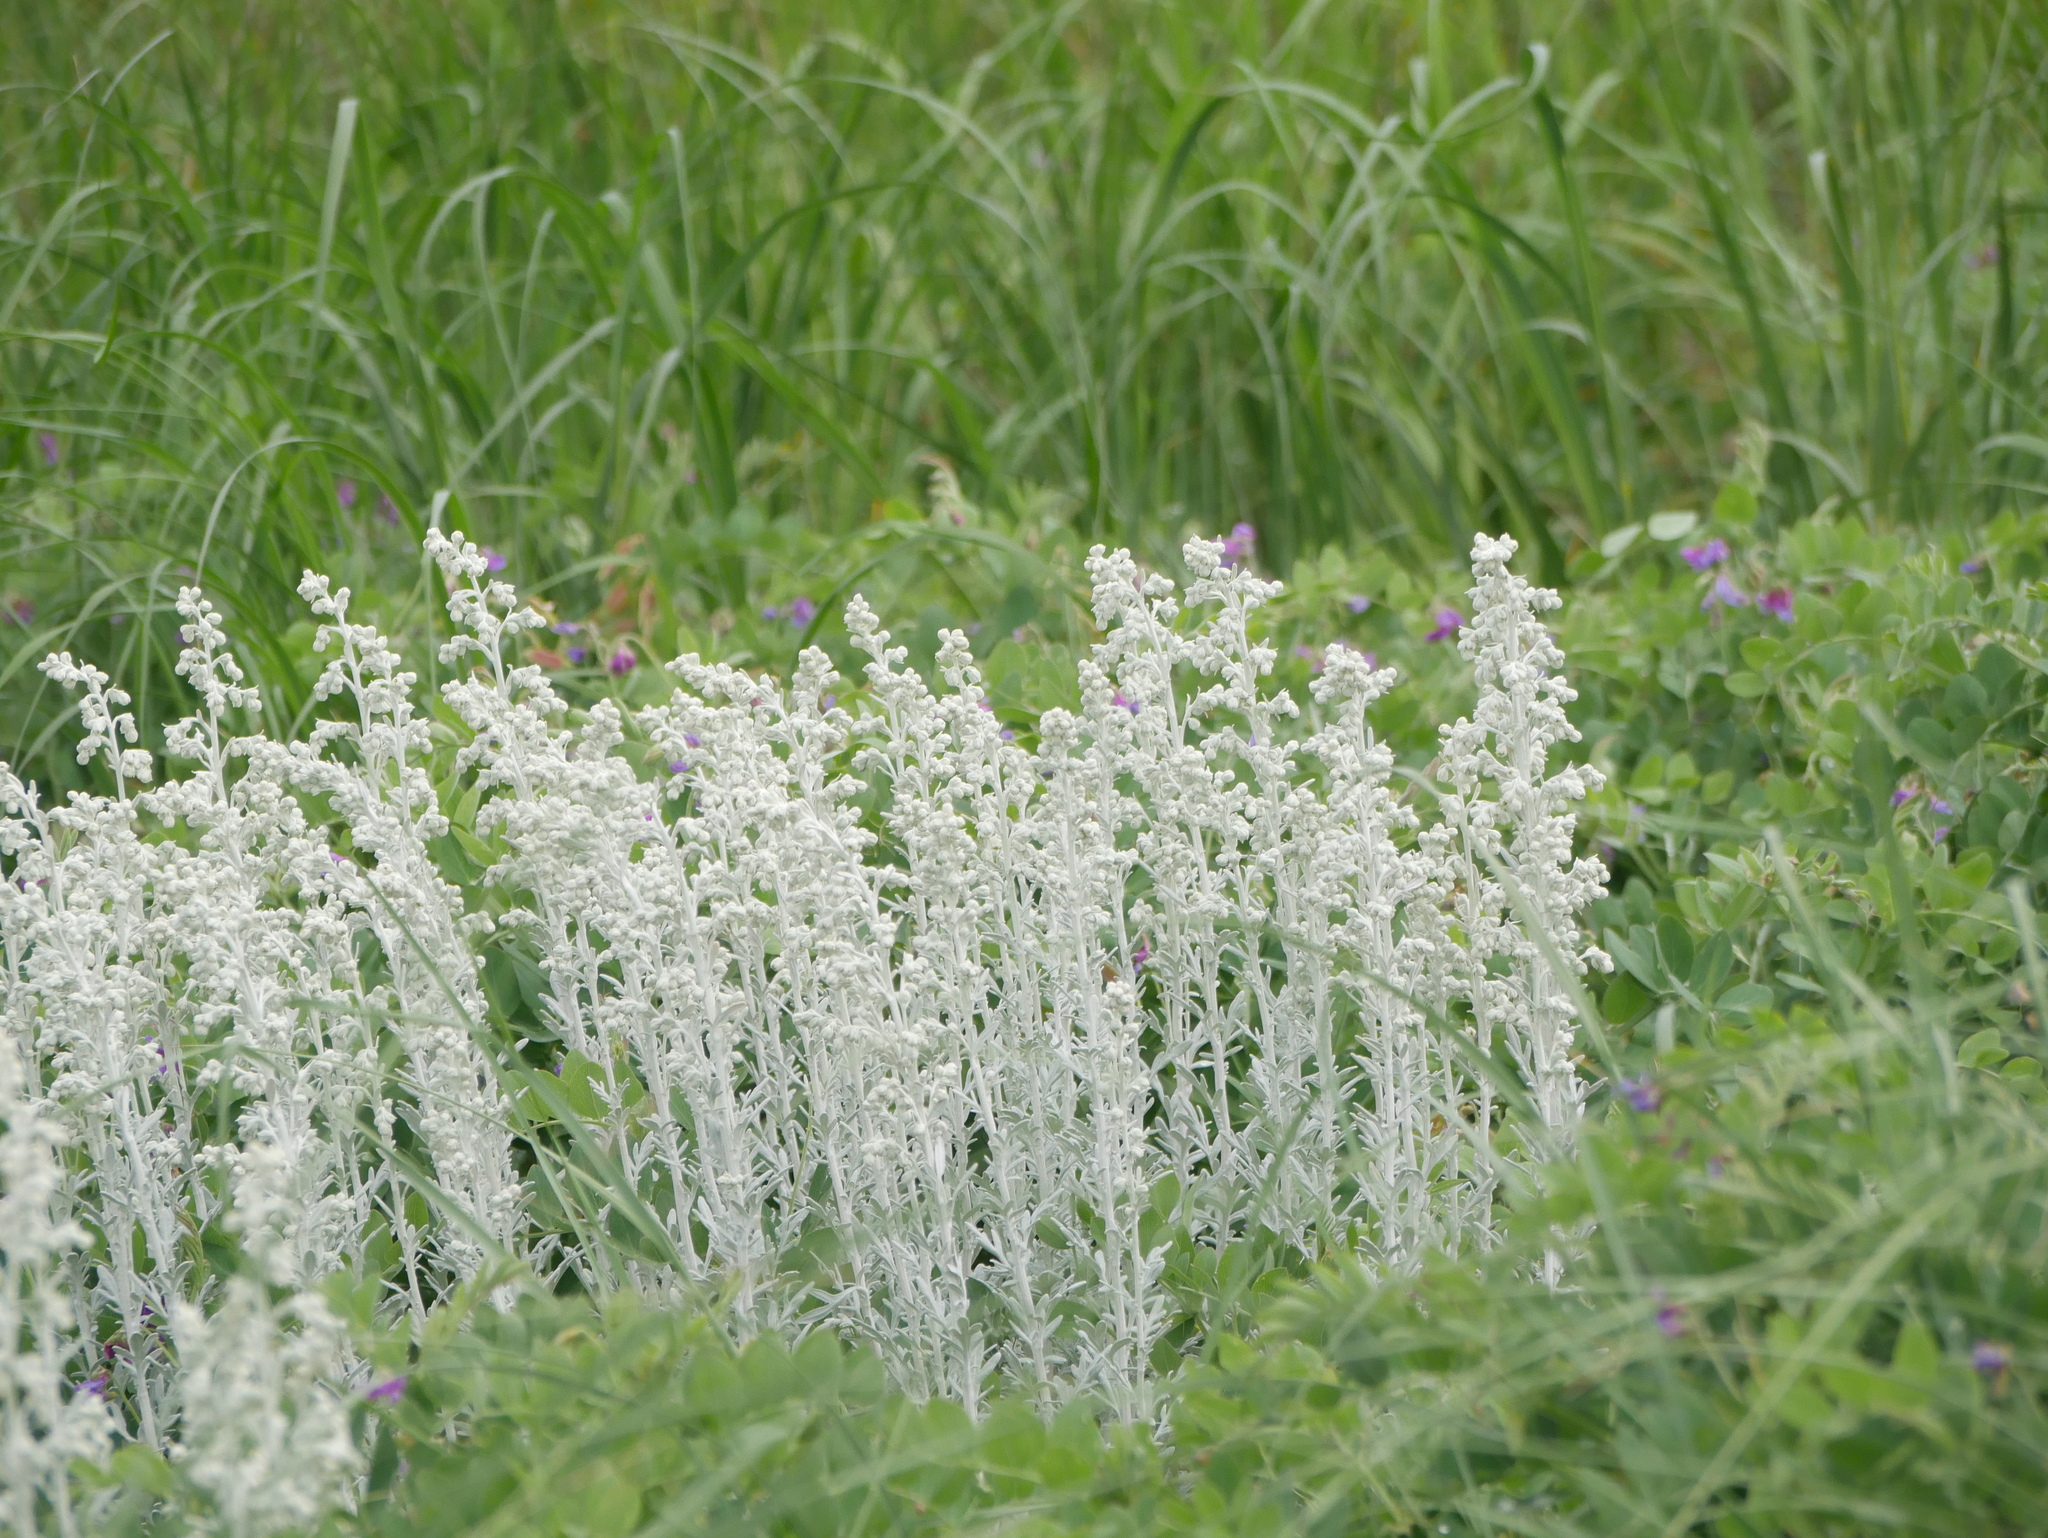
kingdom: Plantae
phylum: Tracheophyta
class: Magnoliopsida
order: Asterales
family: Asteraceae
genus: Artemisia
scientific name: Artemisia stelleriana
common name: Beach wormwood
